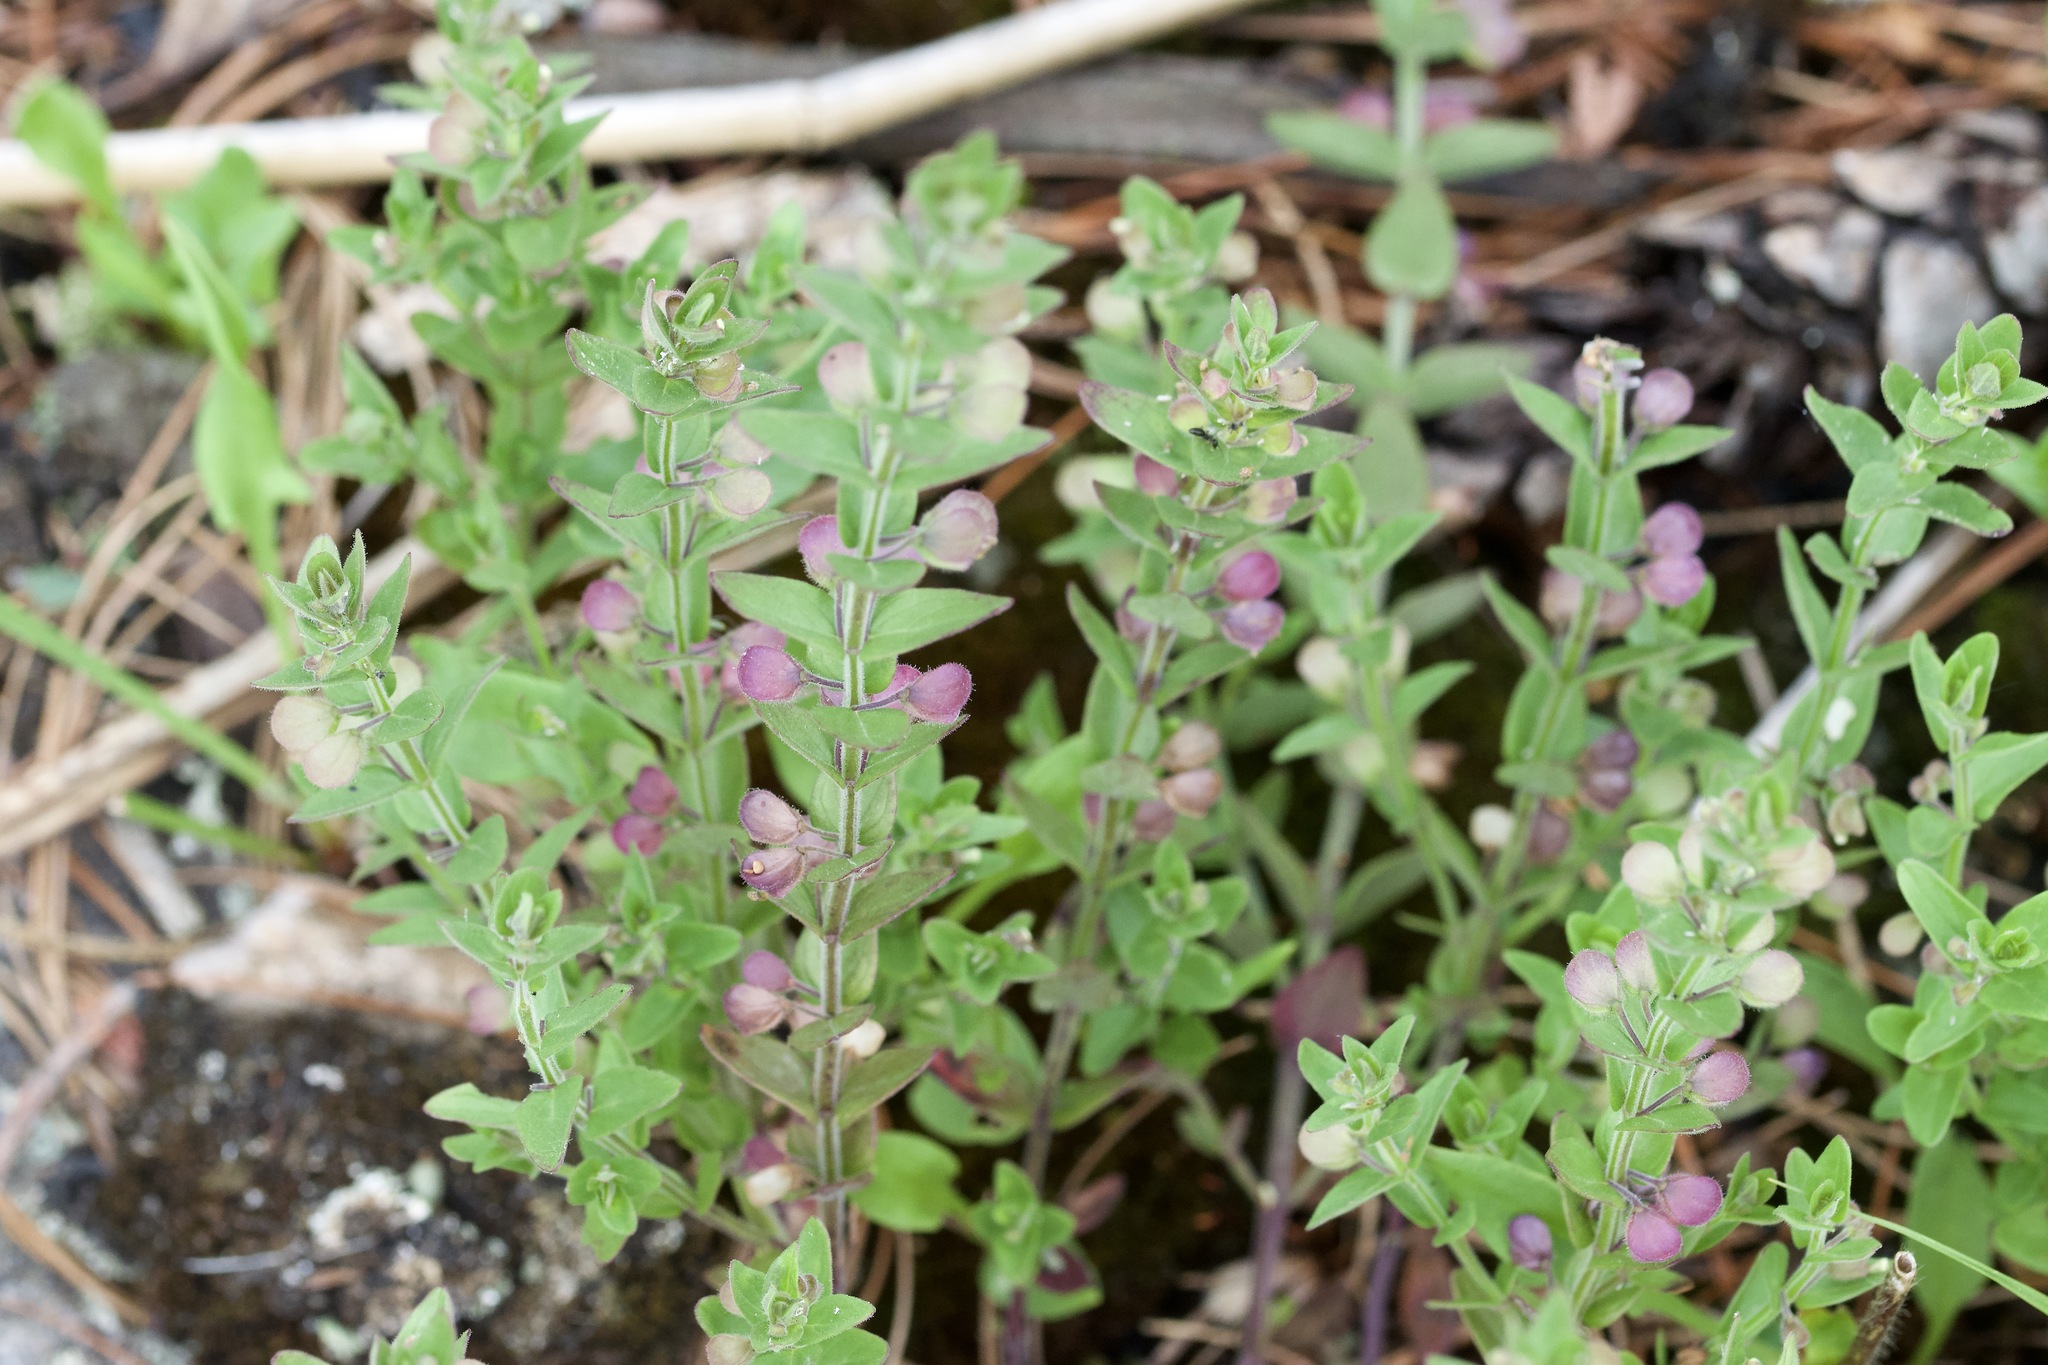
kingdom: Plantae
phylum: Tracheophyta
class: Magnoliopsida
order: Lamiales
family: Lamiaceae
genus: Scutellaria
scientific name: Scutellaria parvula
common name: Little scullcap
